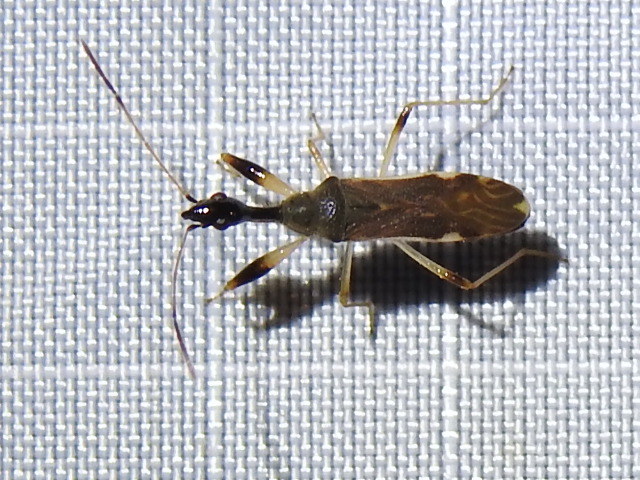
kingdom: Animalia
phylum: Arthropoda
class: Insecta
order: Hemiptera
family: Rhyparochromidae
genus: Myodocha
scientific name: Myodocha serripes
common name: Long-necked seed bug
